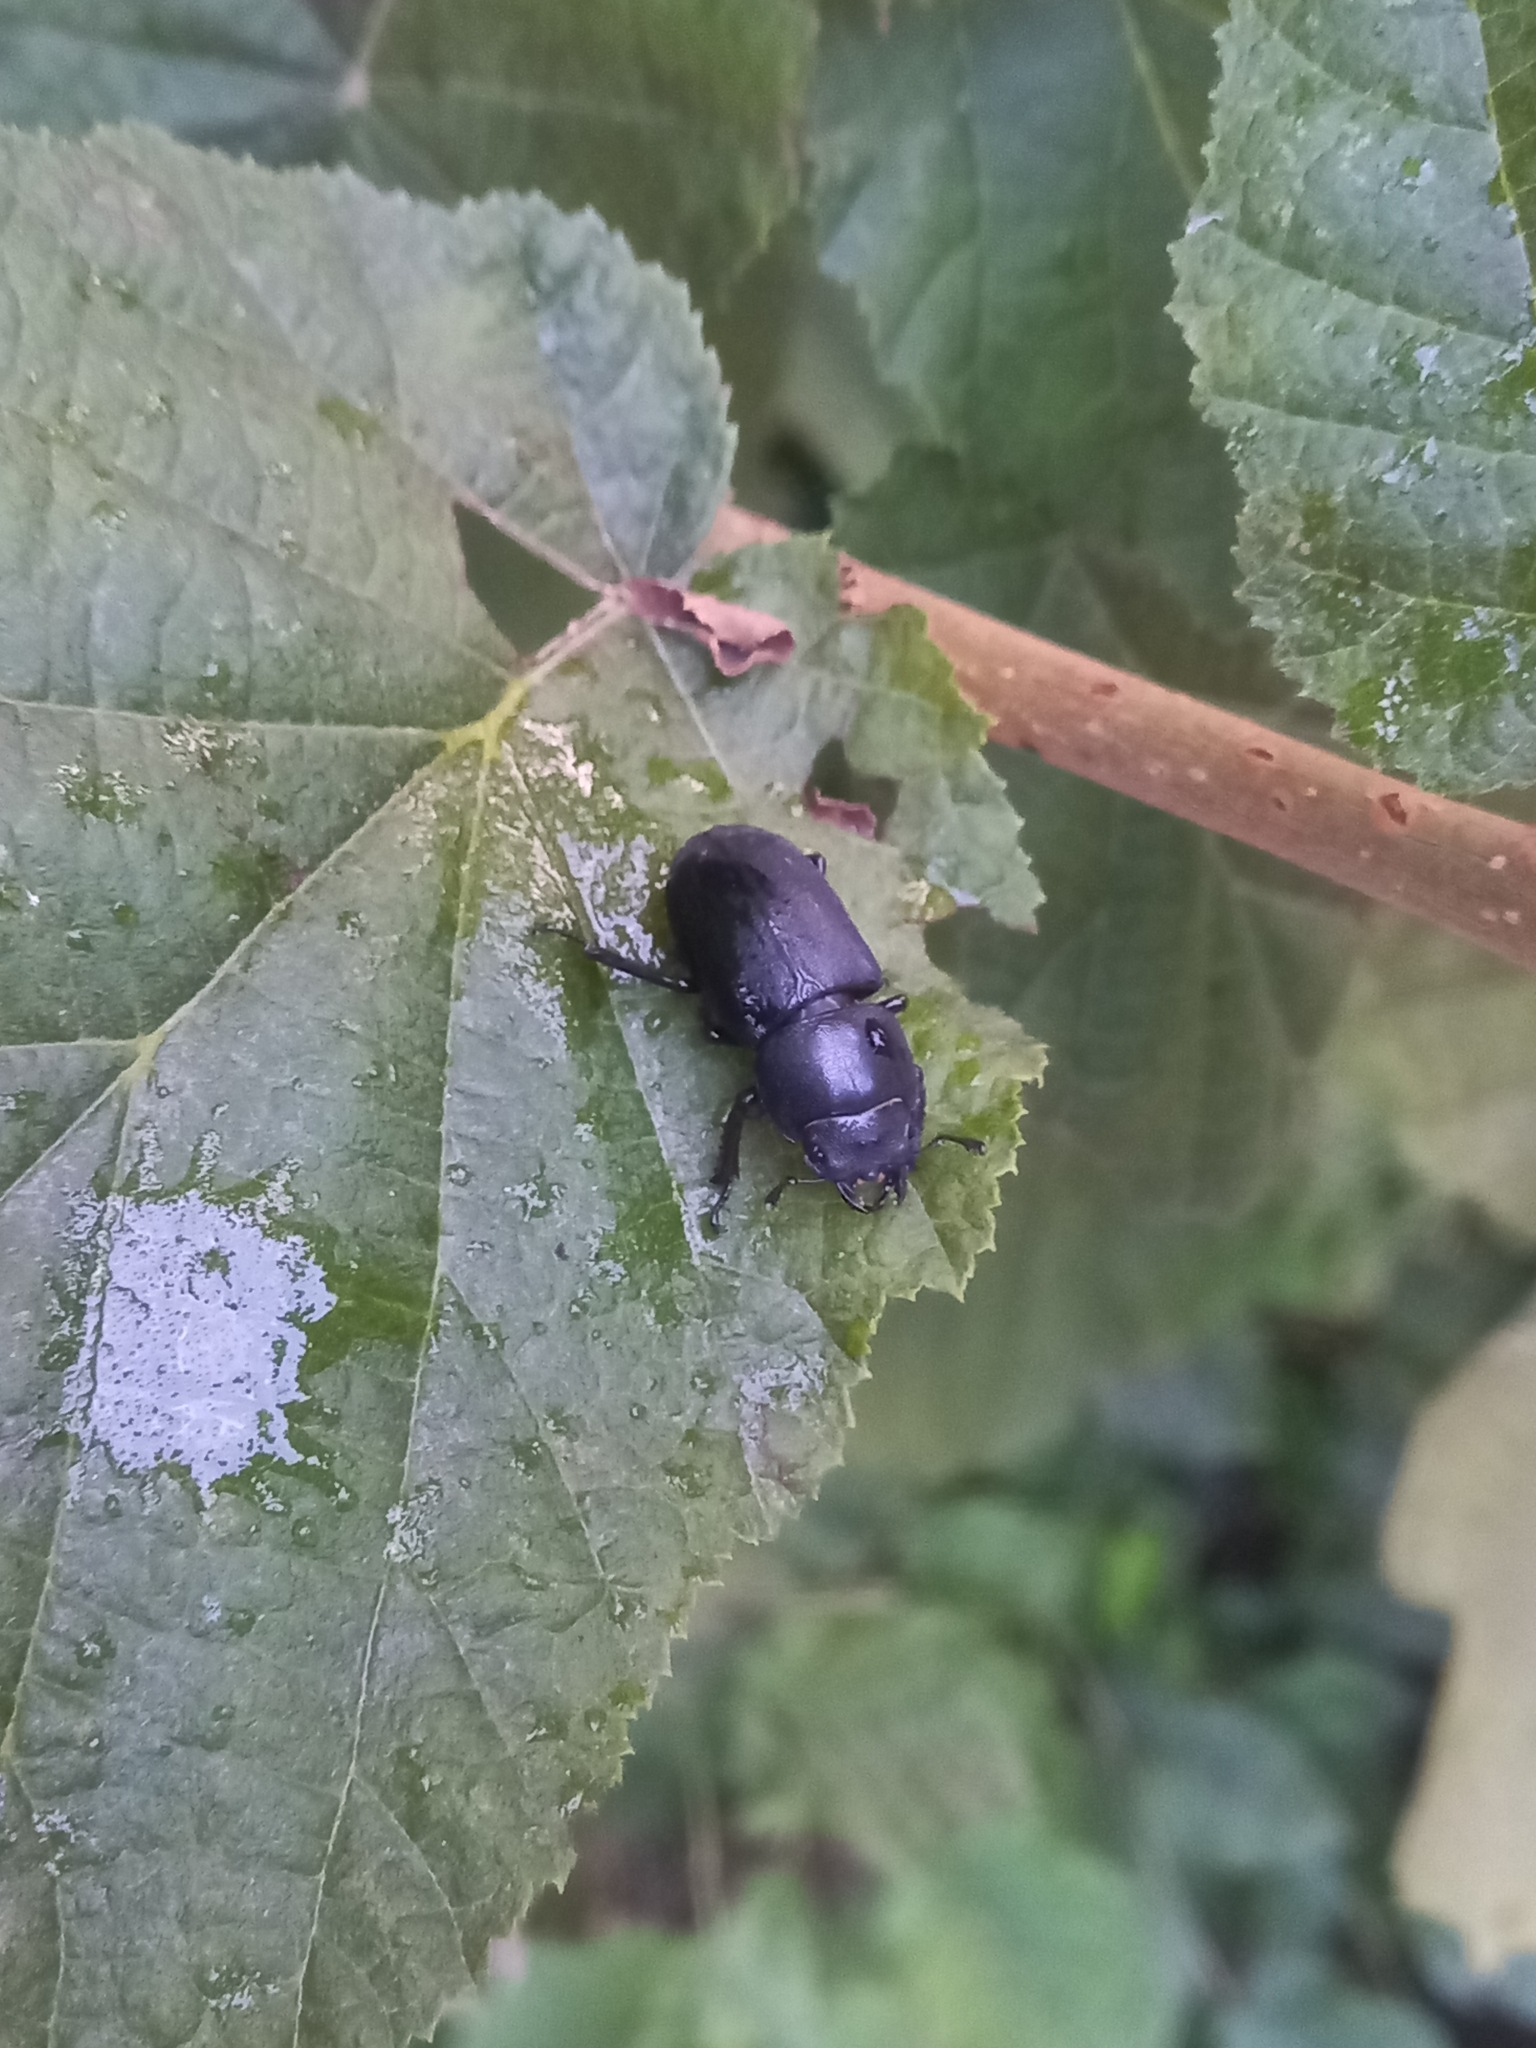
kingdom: Animalia
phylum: Arthropoda
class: Insecta
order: Coleoptera
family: Lucanidae
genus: Dorcus
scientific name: Dorcus parallelipipedus
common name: Lesser stag beetle
